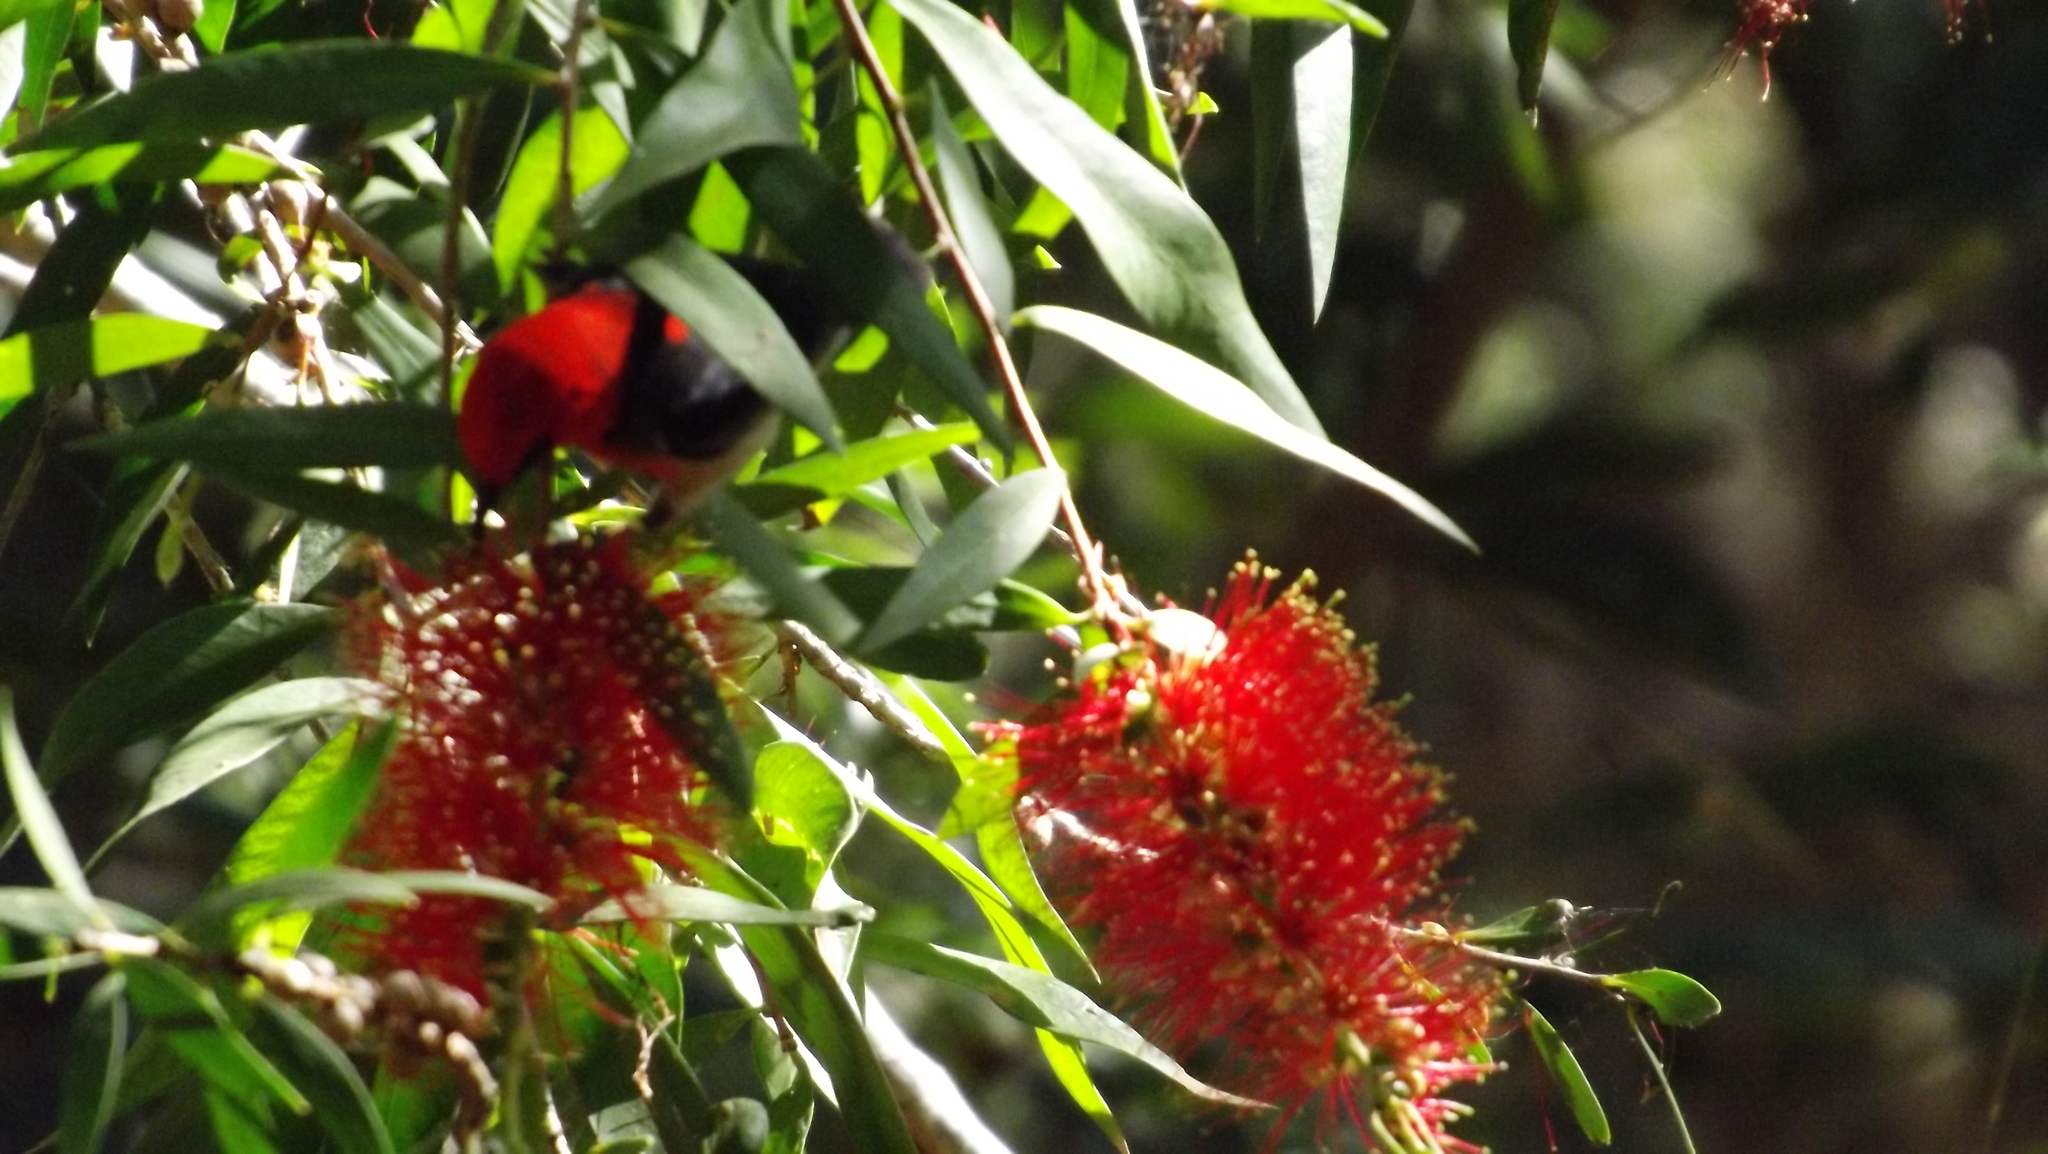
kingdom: Animalia
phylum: Chordata
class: Aves
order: Passeriformes
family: Meliphagidae
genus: Myzomela
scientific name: Myzomela sanguinolenta
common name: Scarlet myzomela
